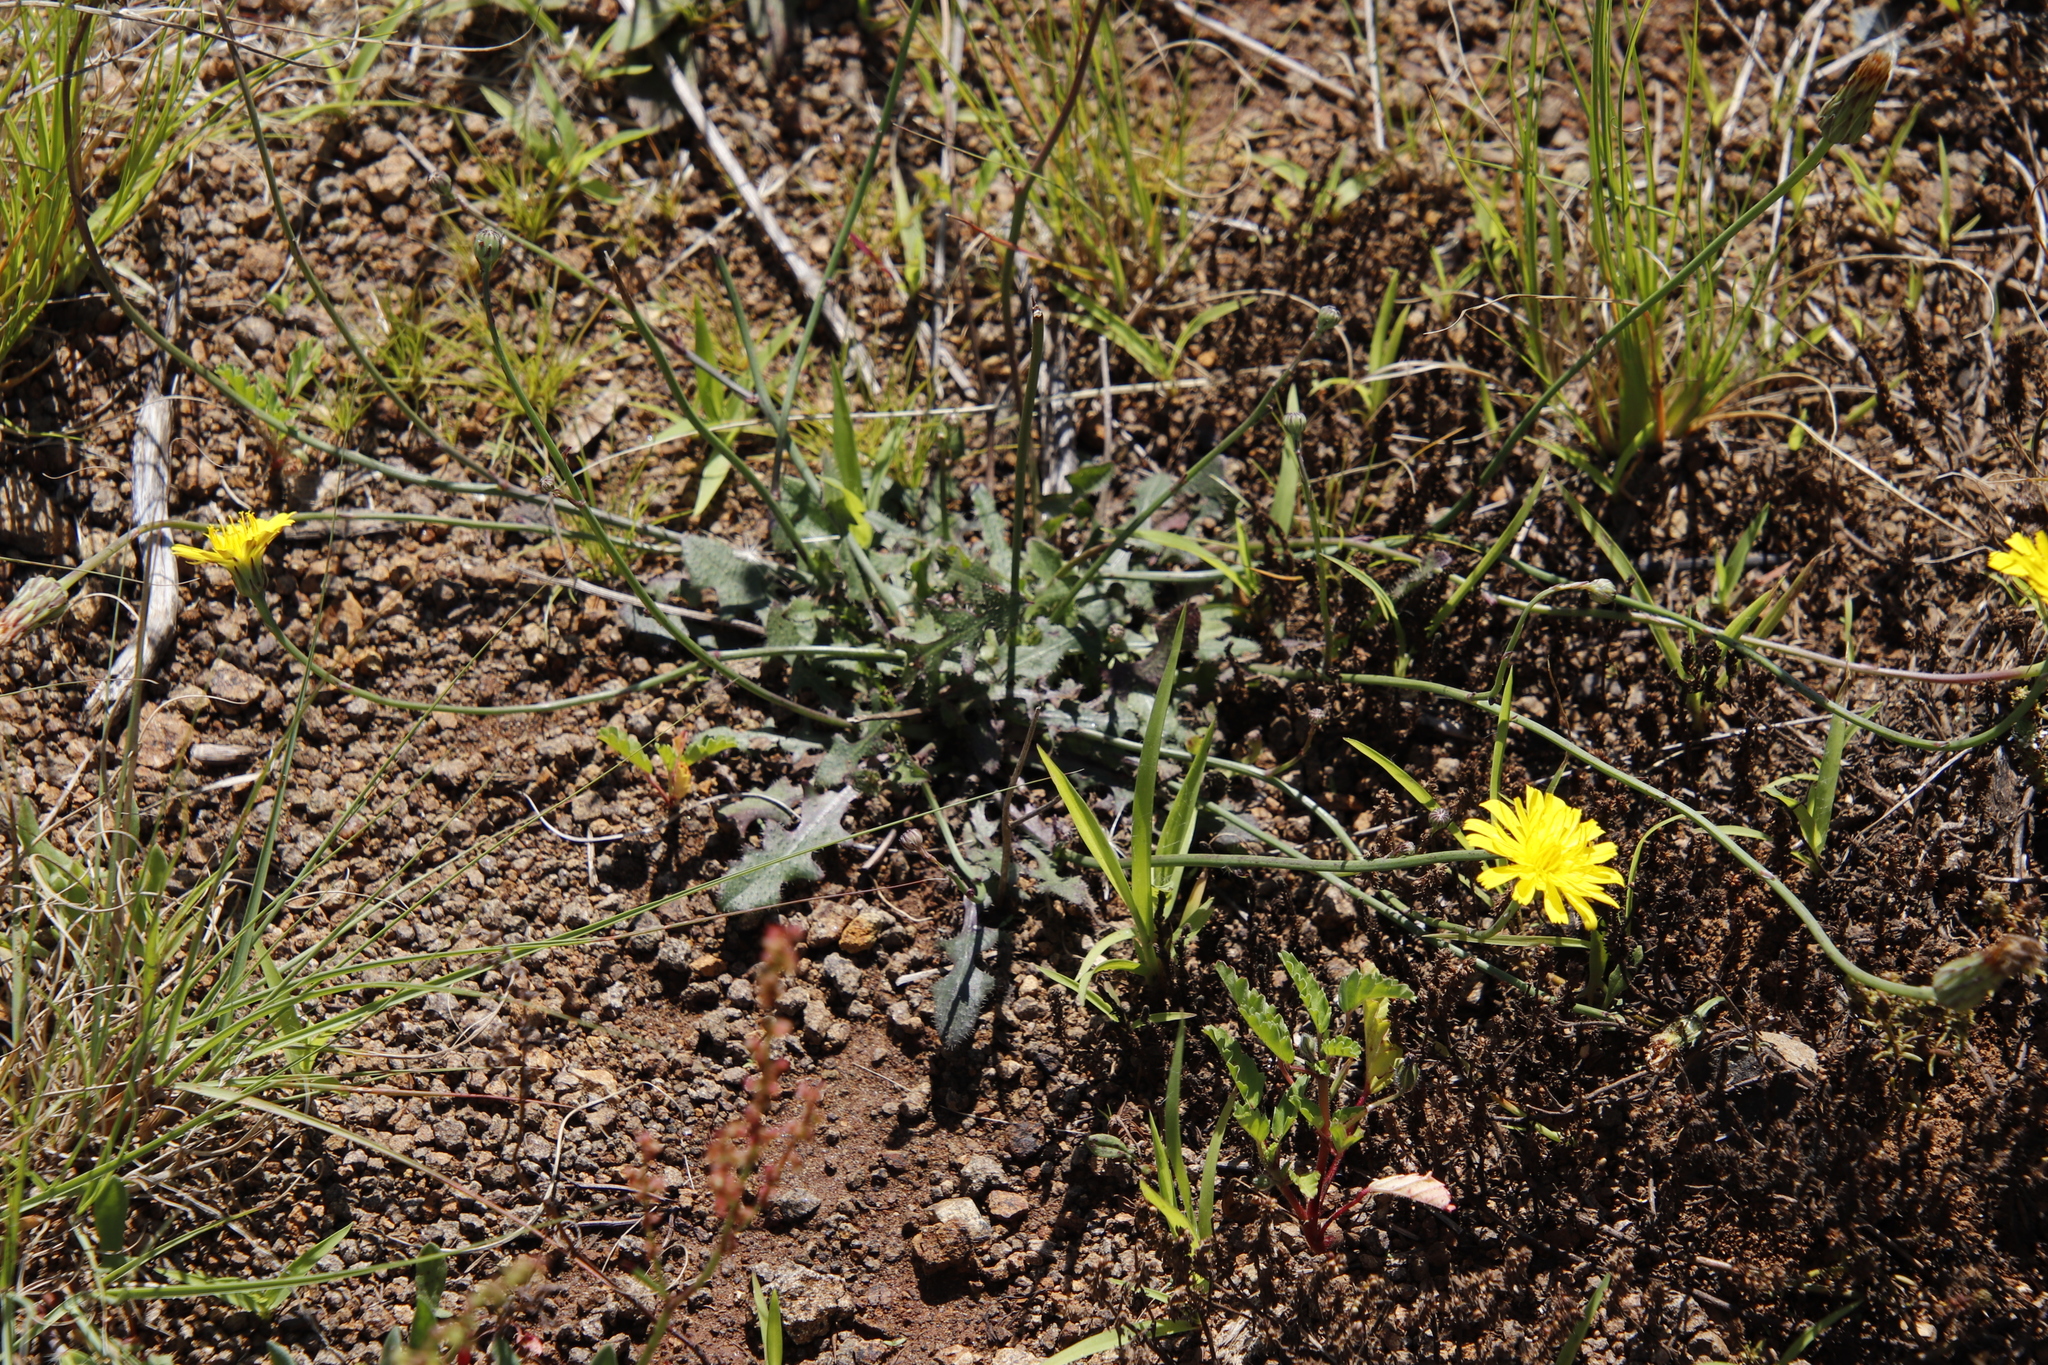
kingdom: Plantae
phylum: Tracheophyta
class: Magnoliopsida
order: Asterales
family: Asteraceae
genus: Hypochaeris
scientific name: Hypochaeris radicata
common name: Flatweed
